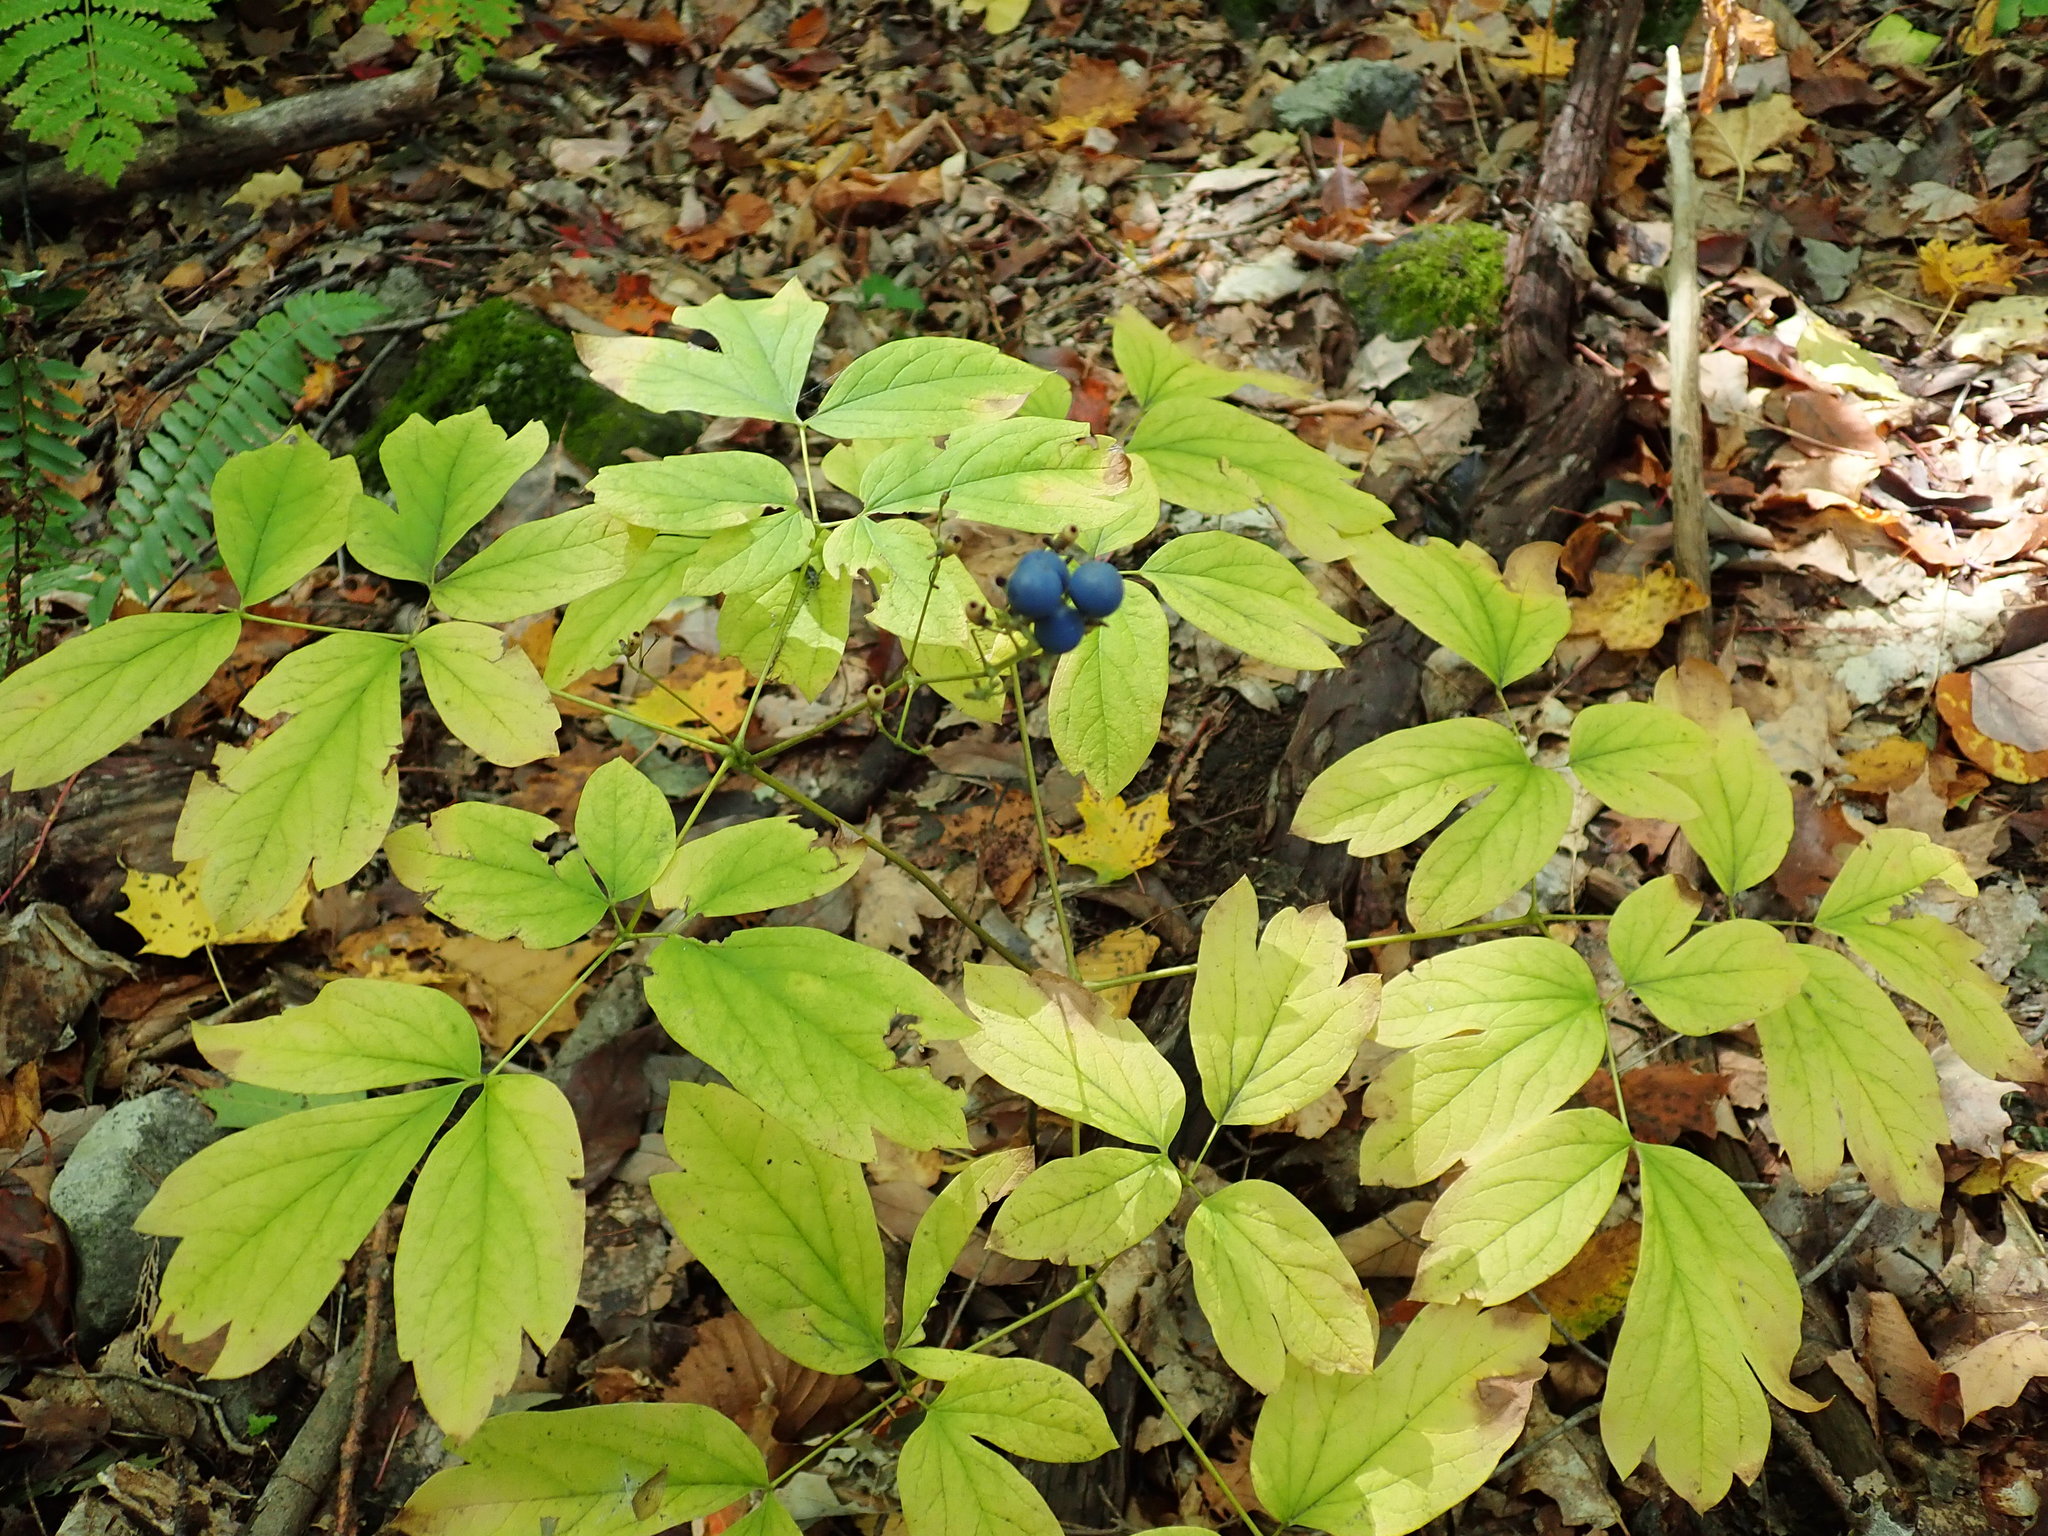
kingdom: Plantae
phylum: Tracheophyta
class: Magnoliopsida
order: Ranunculales
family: Berberidaceae
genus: Caulophyllum
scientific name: Caulophyllum
